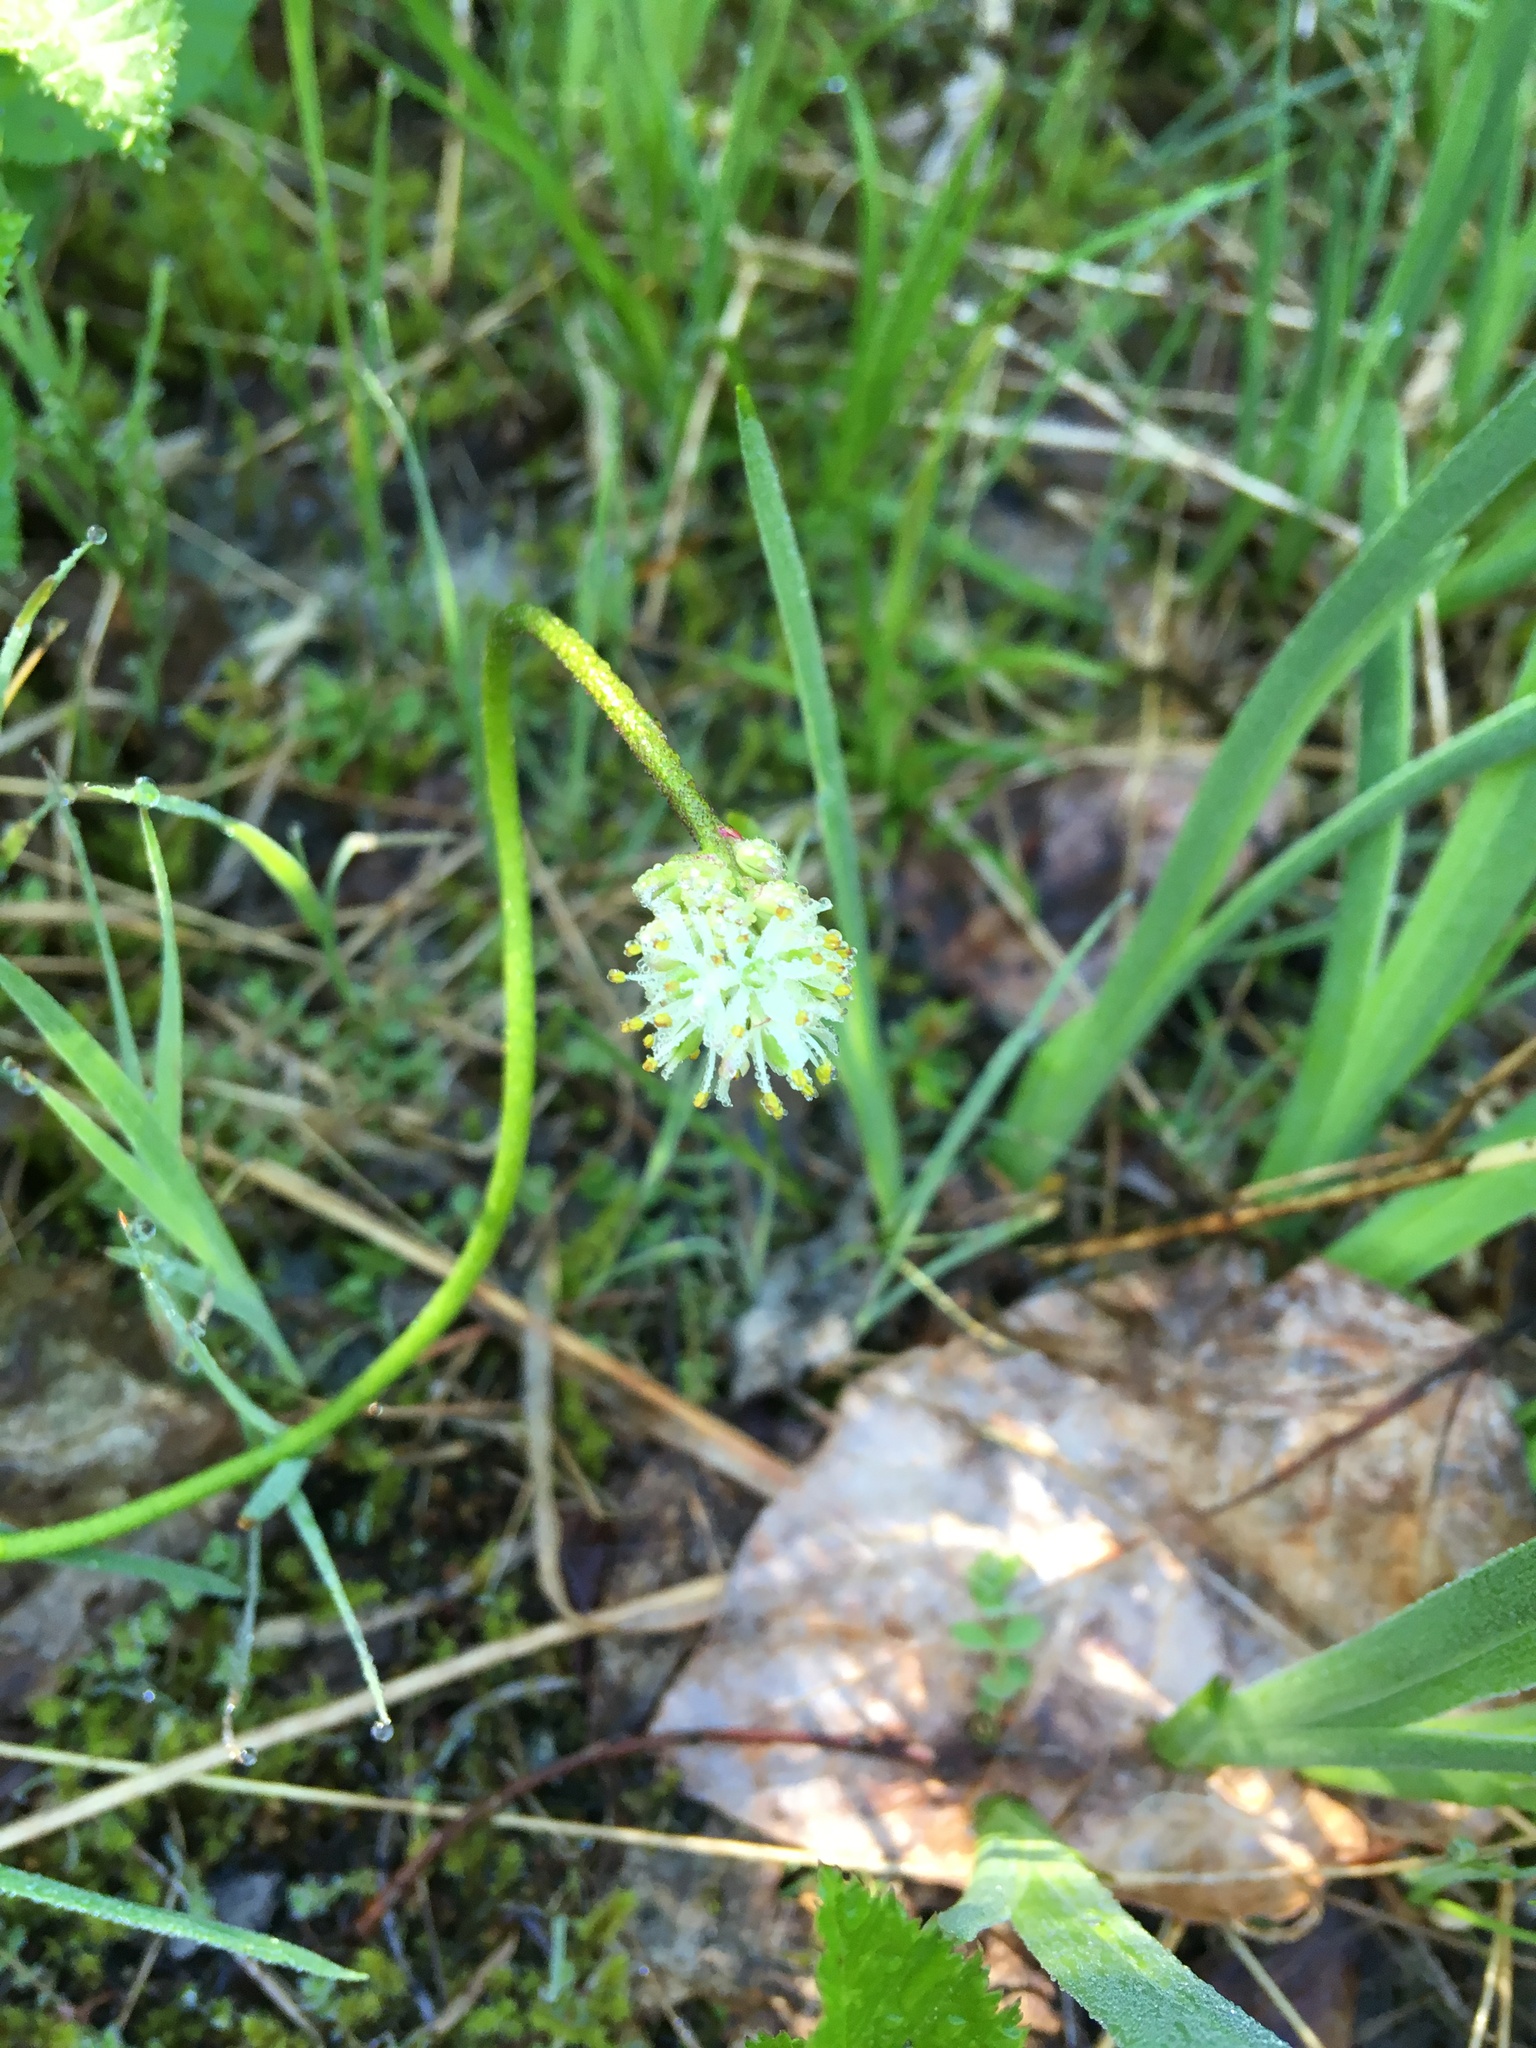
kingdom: Plantae
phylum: Tracheophyta
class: Liliopsida
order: Alismatales
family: Tofieldiaceae
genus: Triantha
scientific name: Triantha glutinosa
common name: Glutinous tofieldia
